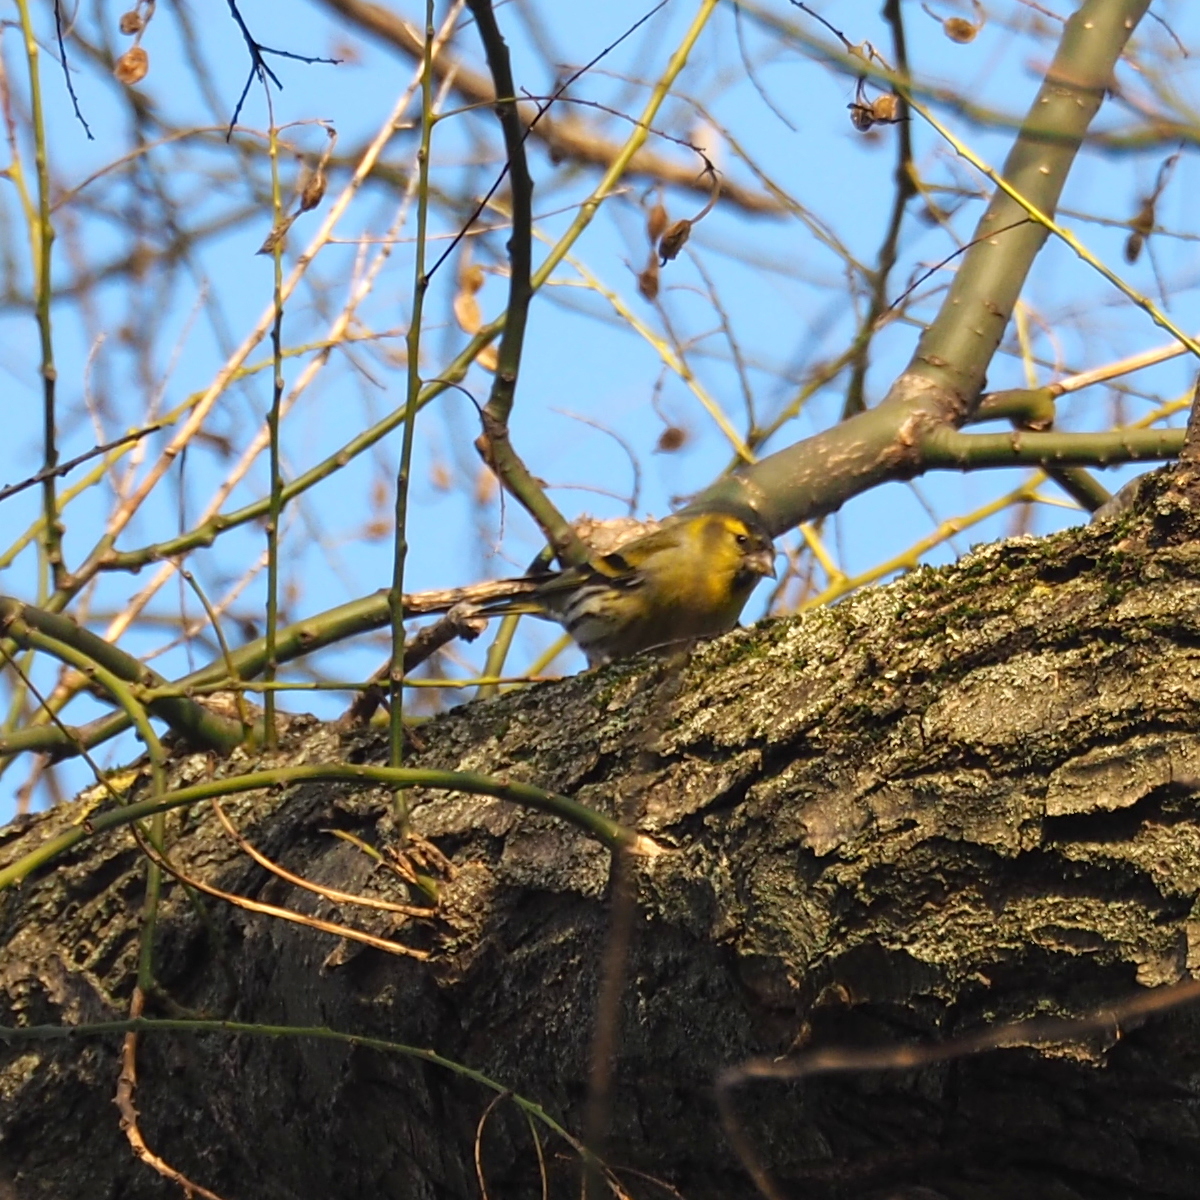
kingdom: Animalia
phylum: Chordata
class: Aves
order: Passeriformes
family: Fringillidae
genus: Spinus
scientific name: Spinus spinus
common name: Eurasian siskin
